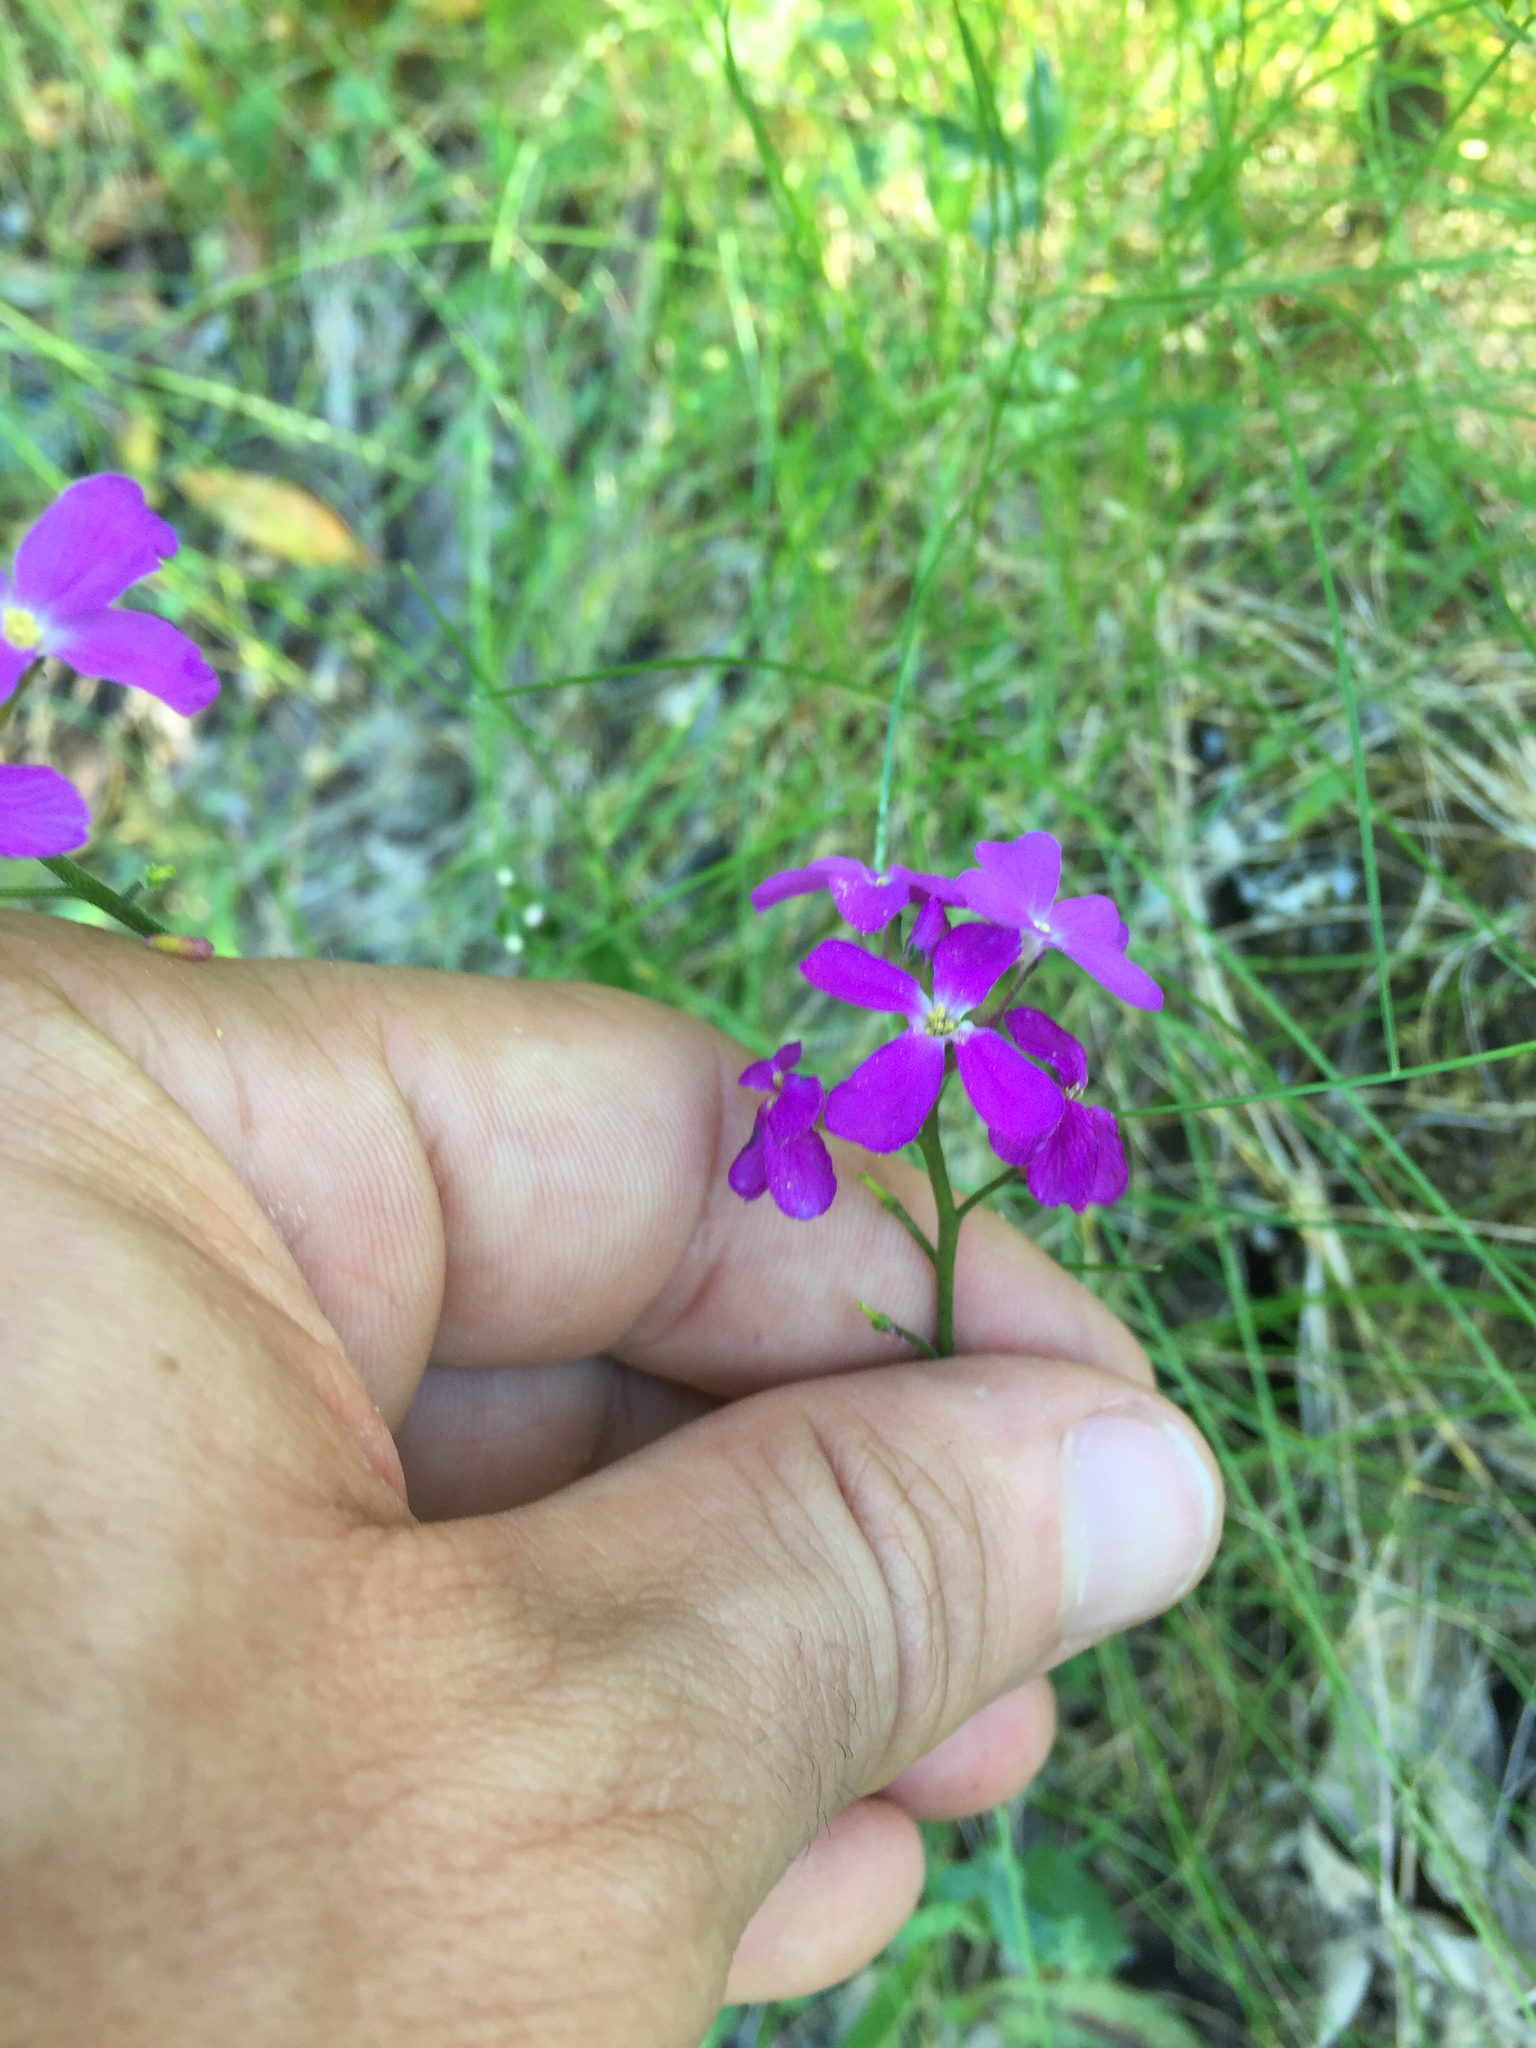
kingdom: Plantae
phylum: Tracheophyta
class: Magnoliopsida
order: Brassicales
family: Brassicaceae
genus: Arabis
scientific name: Arabis blepharophylla
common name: Rose rockcress
